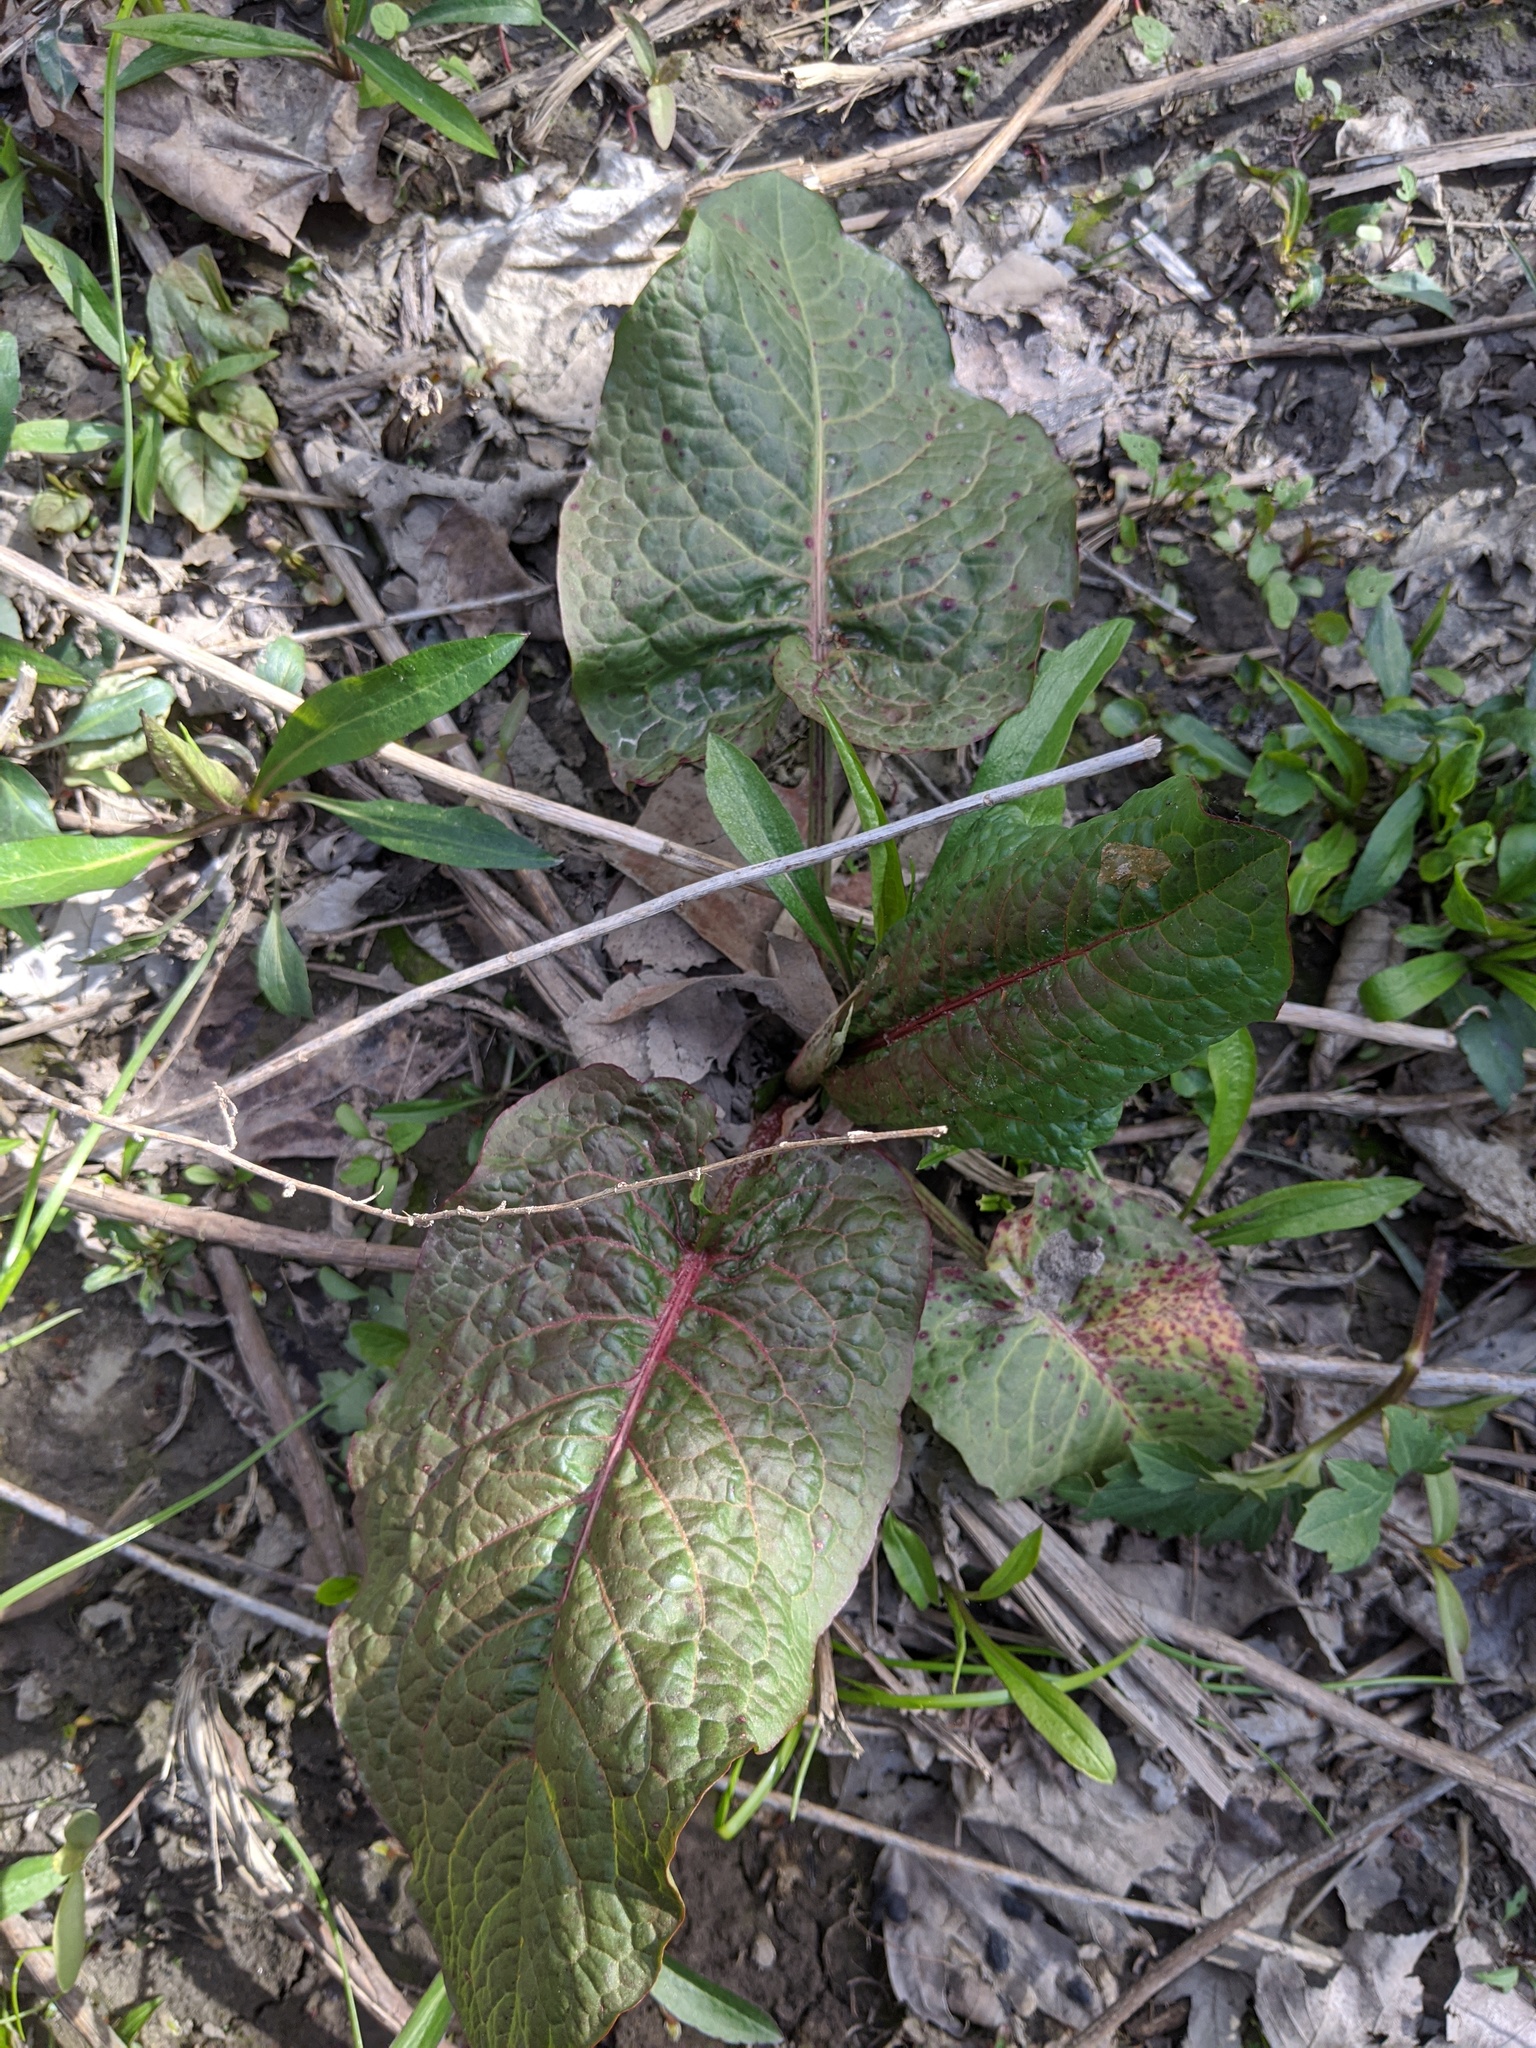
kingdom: Plantae
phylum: Tracheophyta
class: Magnoliopsida
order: Caryophyllales
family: Polygonaceae
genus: Rumex
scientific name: Rumex obtusifolius
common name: Bitter dock
